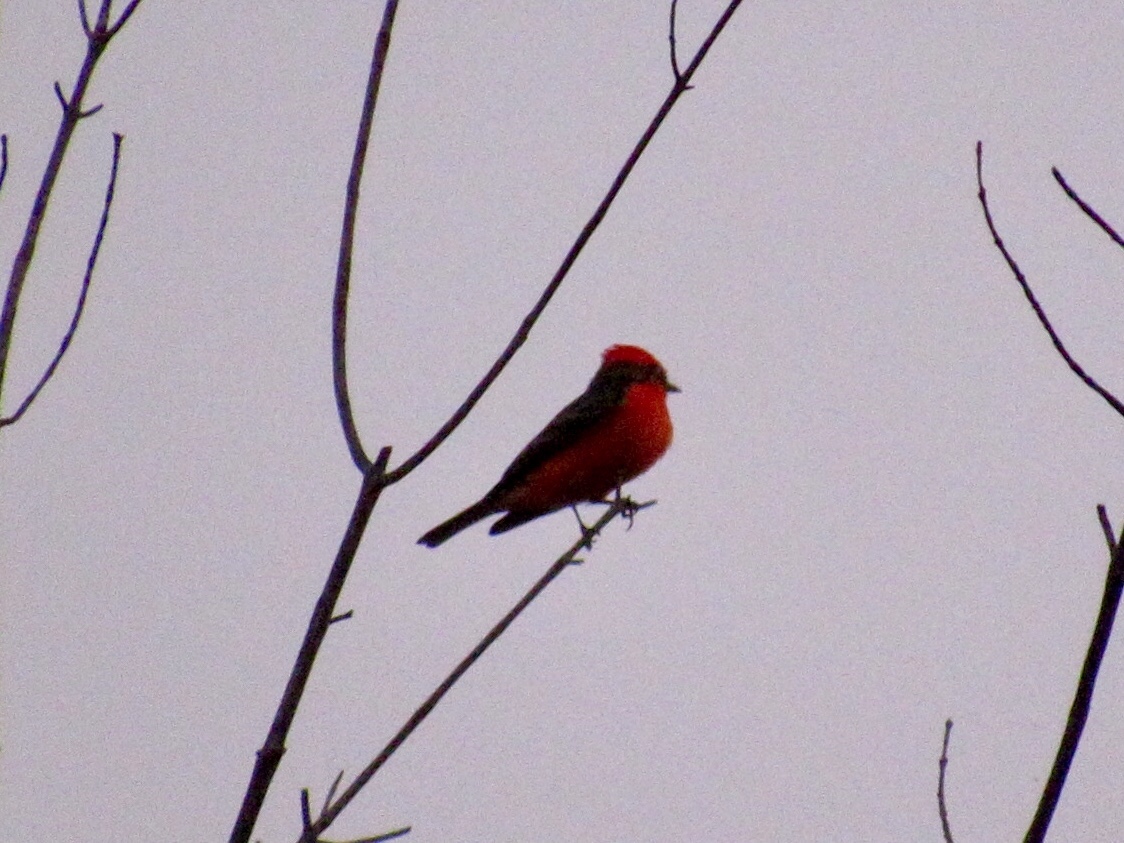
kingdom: Animalia
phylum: Chordata
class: Aves
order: Passeriformes
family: Tyrannidae
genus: Pyrocephalus
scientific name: Pyrocephalus rubinus
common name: Vermilion flycatcher
